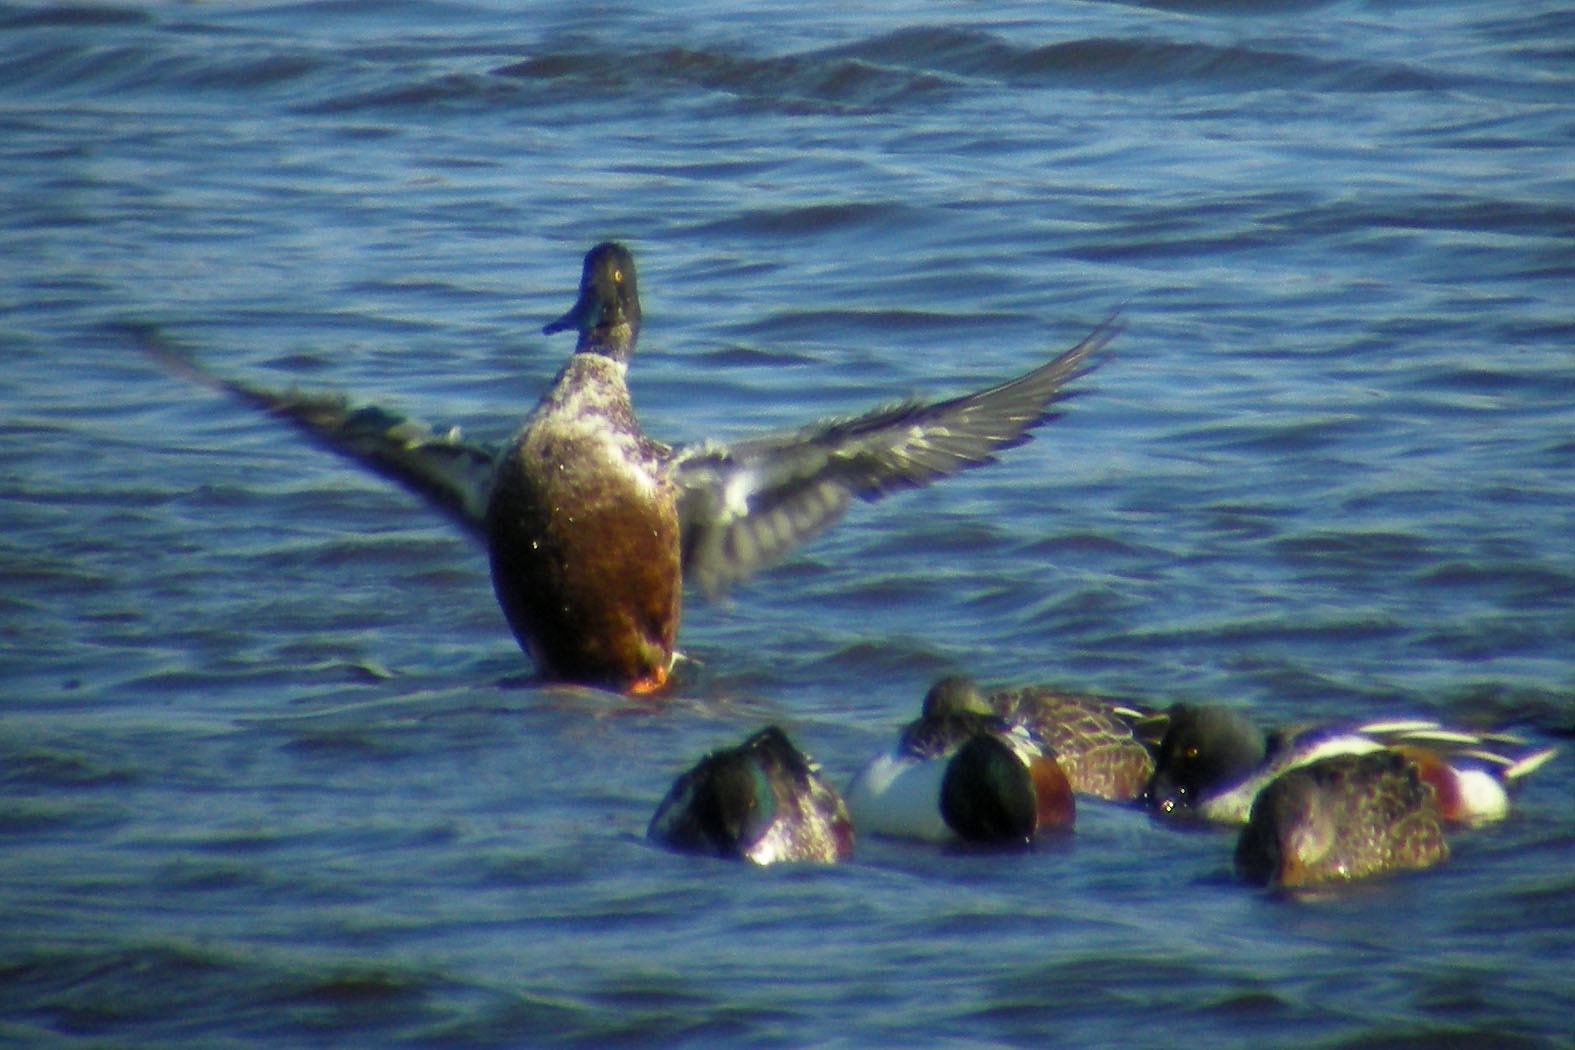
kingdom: Animalia
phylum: Chordata
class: Aves
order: Anseriformes
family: Anatidae
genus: Spatula
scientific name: Spatula clypeata
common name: Northern shoveler
